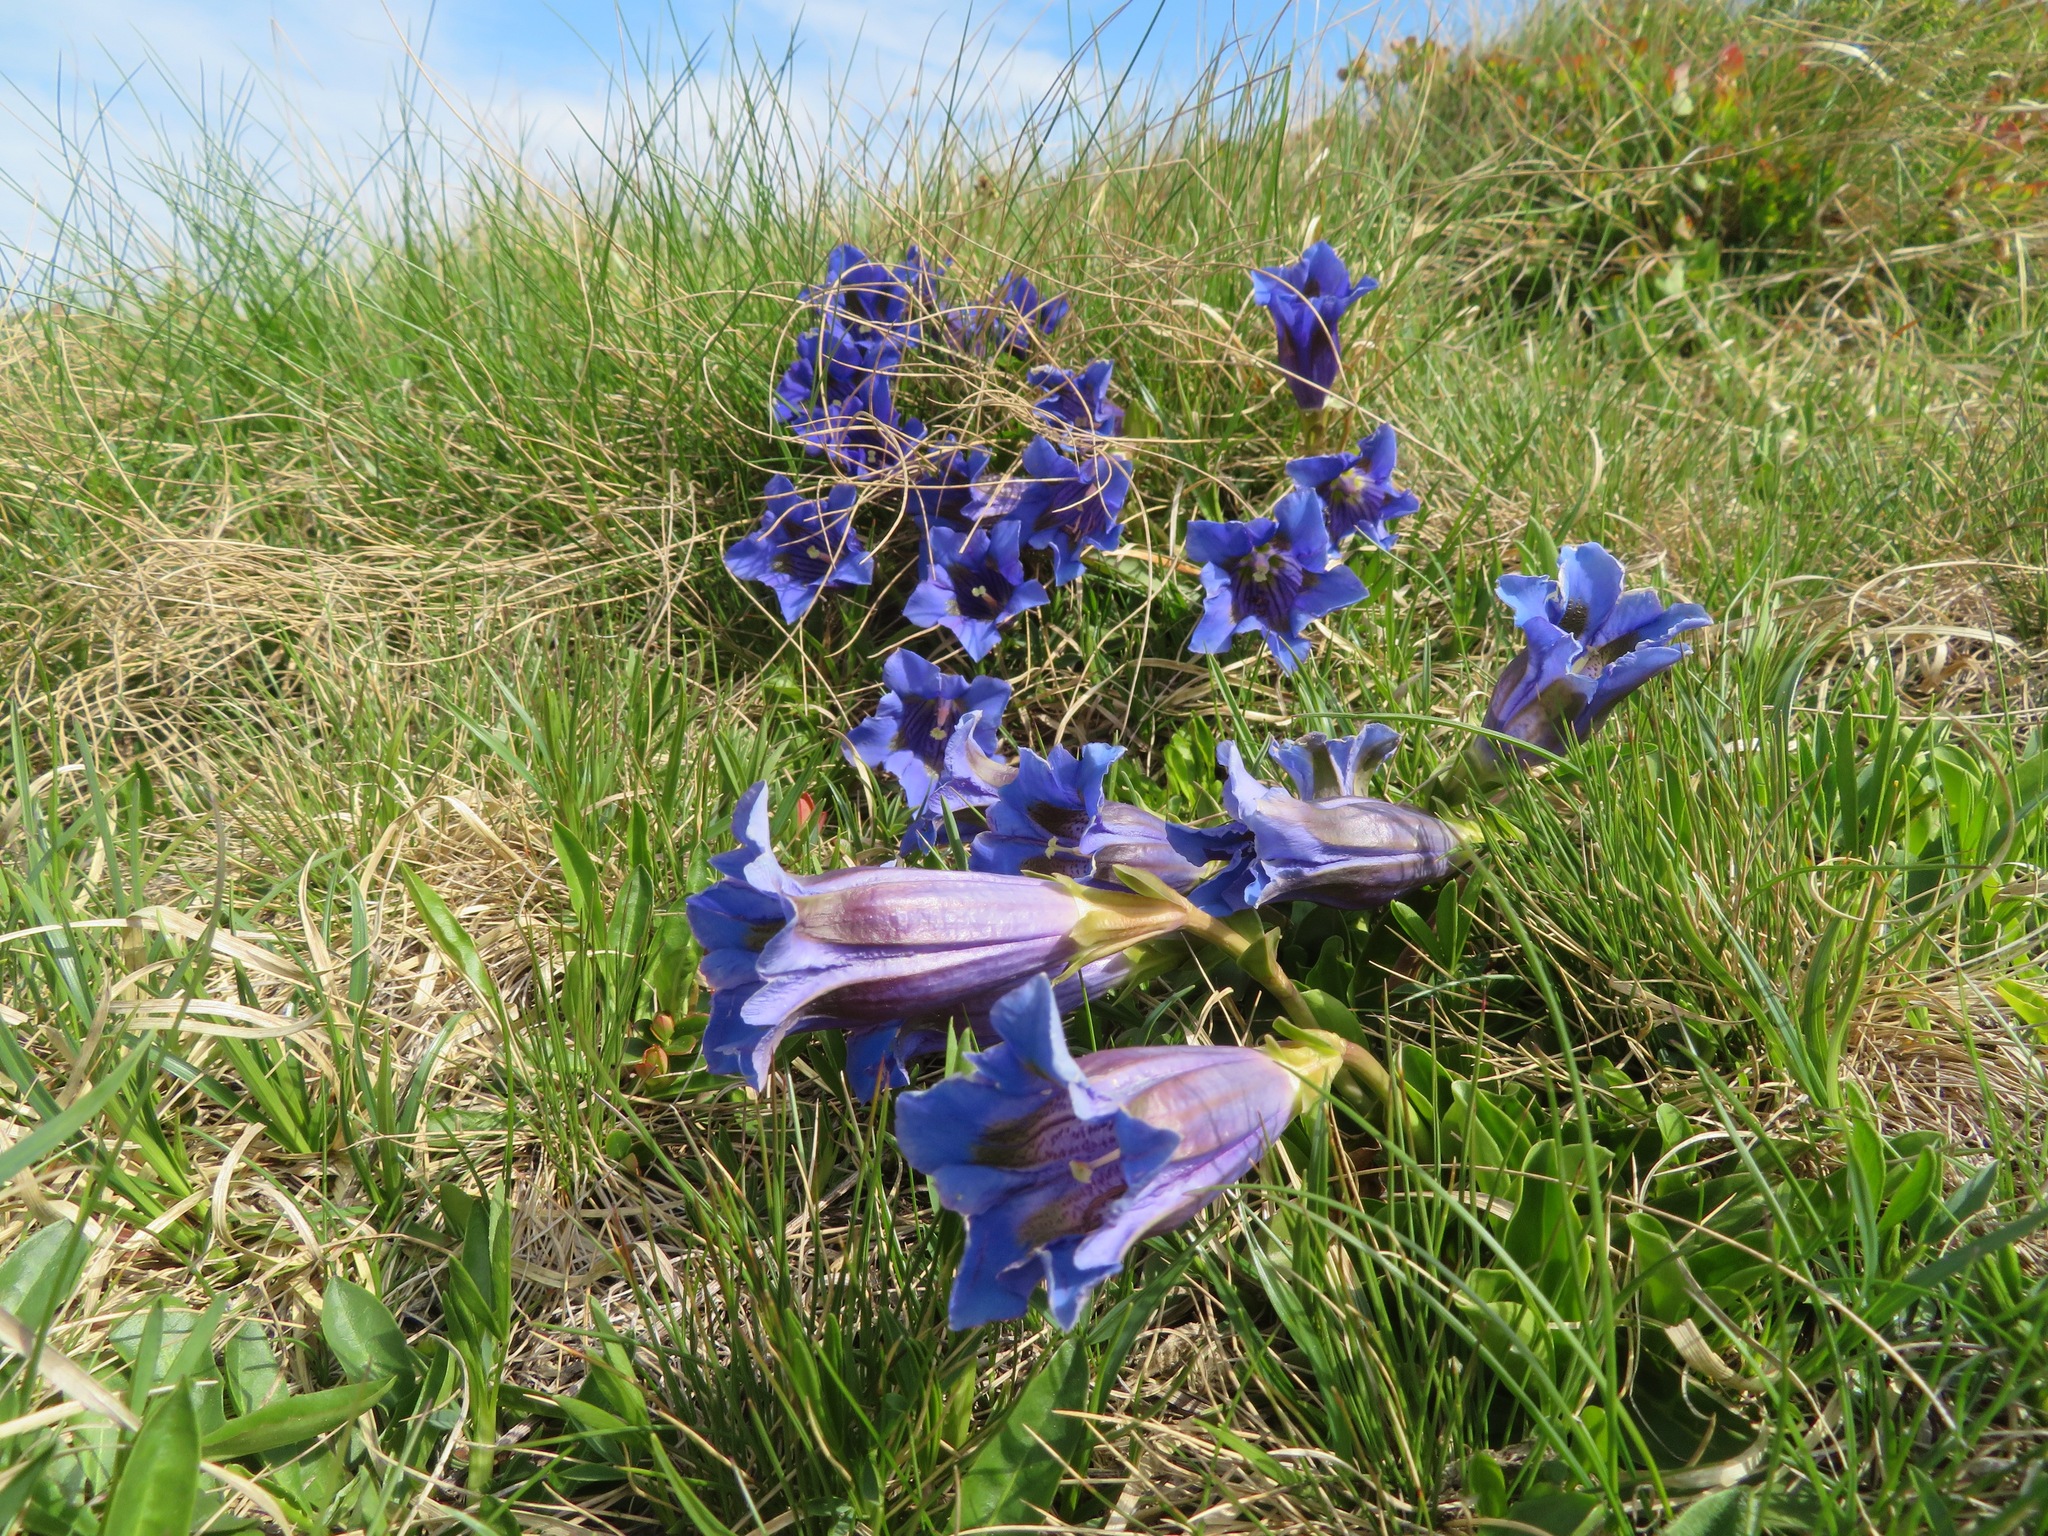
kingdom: Plantae
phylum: Tracheophyta
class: Magnoliopsida
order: Gentianales
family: Gentianaceae
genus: Gentiana
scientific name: Gentiana acaulis
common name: Trumpet gentian
